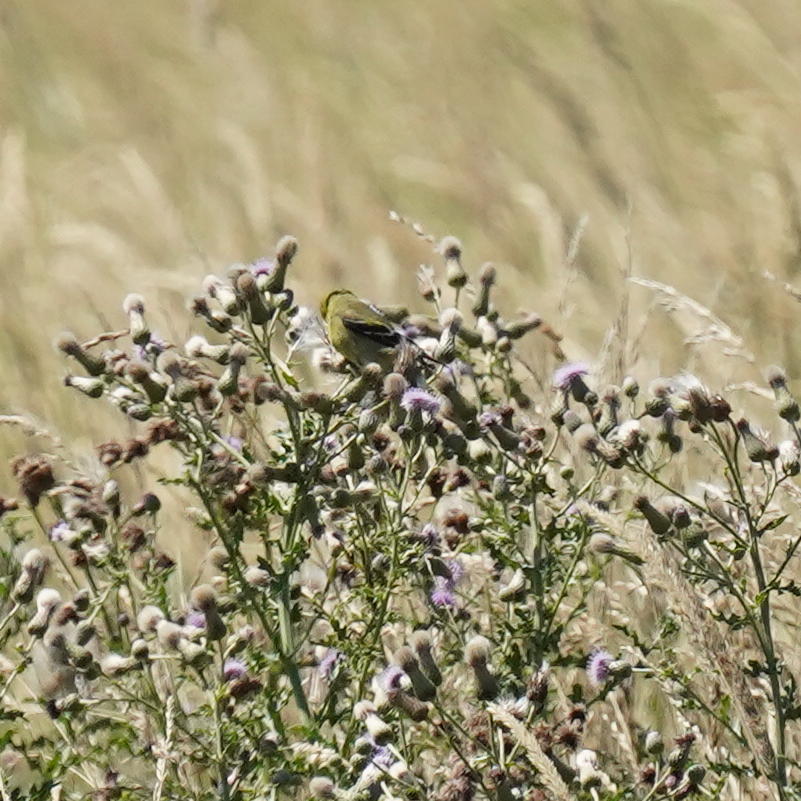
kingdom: Animalia
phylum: Chordata
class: Aves
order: Passeriformes
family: Fringillidae
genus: Spinus
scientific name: Spinus tristis
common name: American goldfinch
